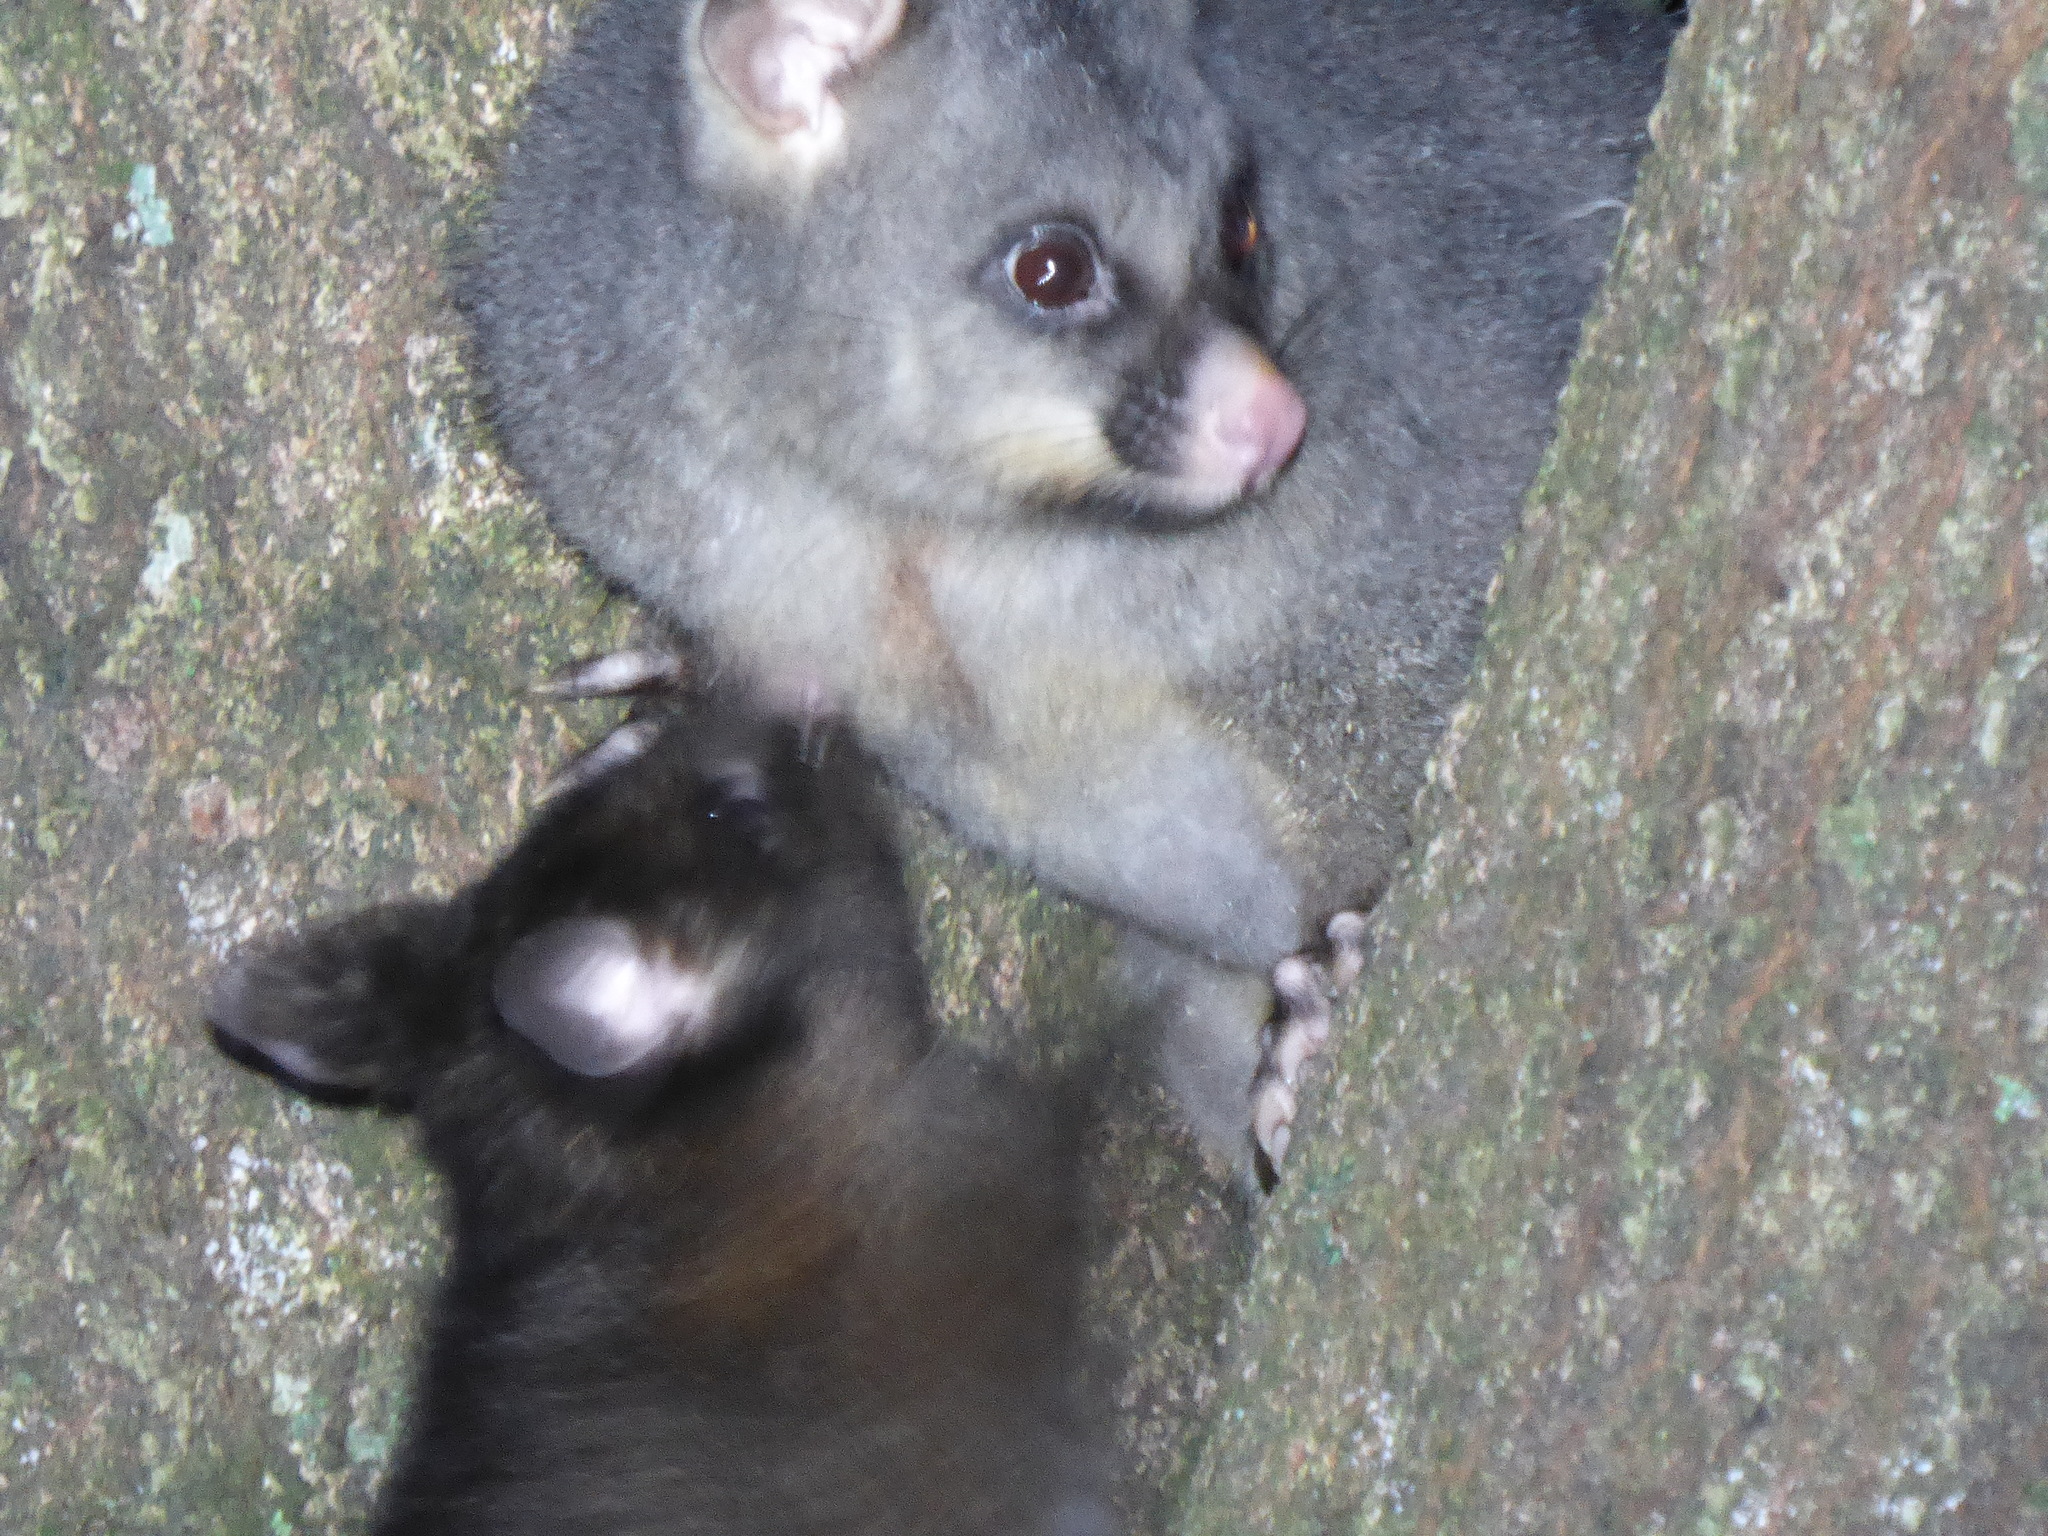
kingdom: Animalia
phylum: Chordata
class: Mammalia
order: Diprotodontia
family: Phalangeridae
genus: Trichosurus
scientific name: Trichosurus vulpecula
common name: Common brushtail
